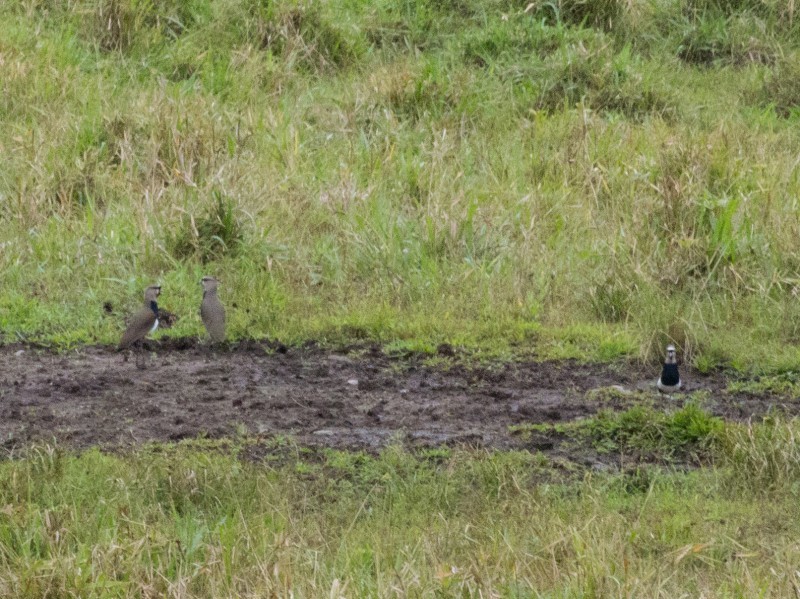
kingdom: Animalia
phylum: Chordata
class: Aves
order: Charadriiformes
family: Charadriidae
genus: Vanellus
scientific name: Vanellus chilensis
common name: Southern lapwing
